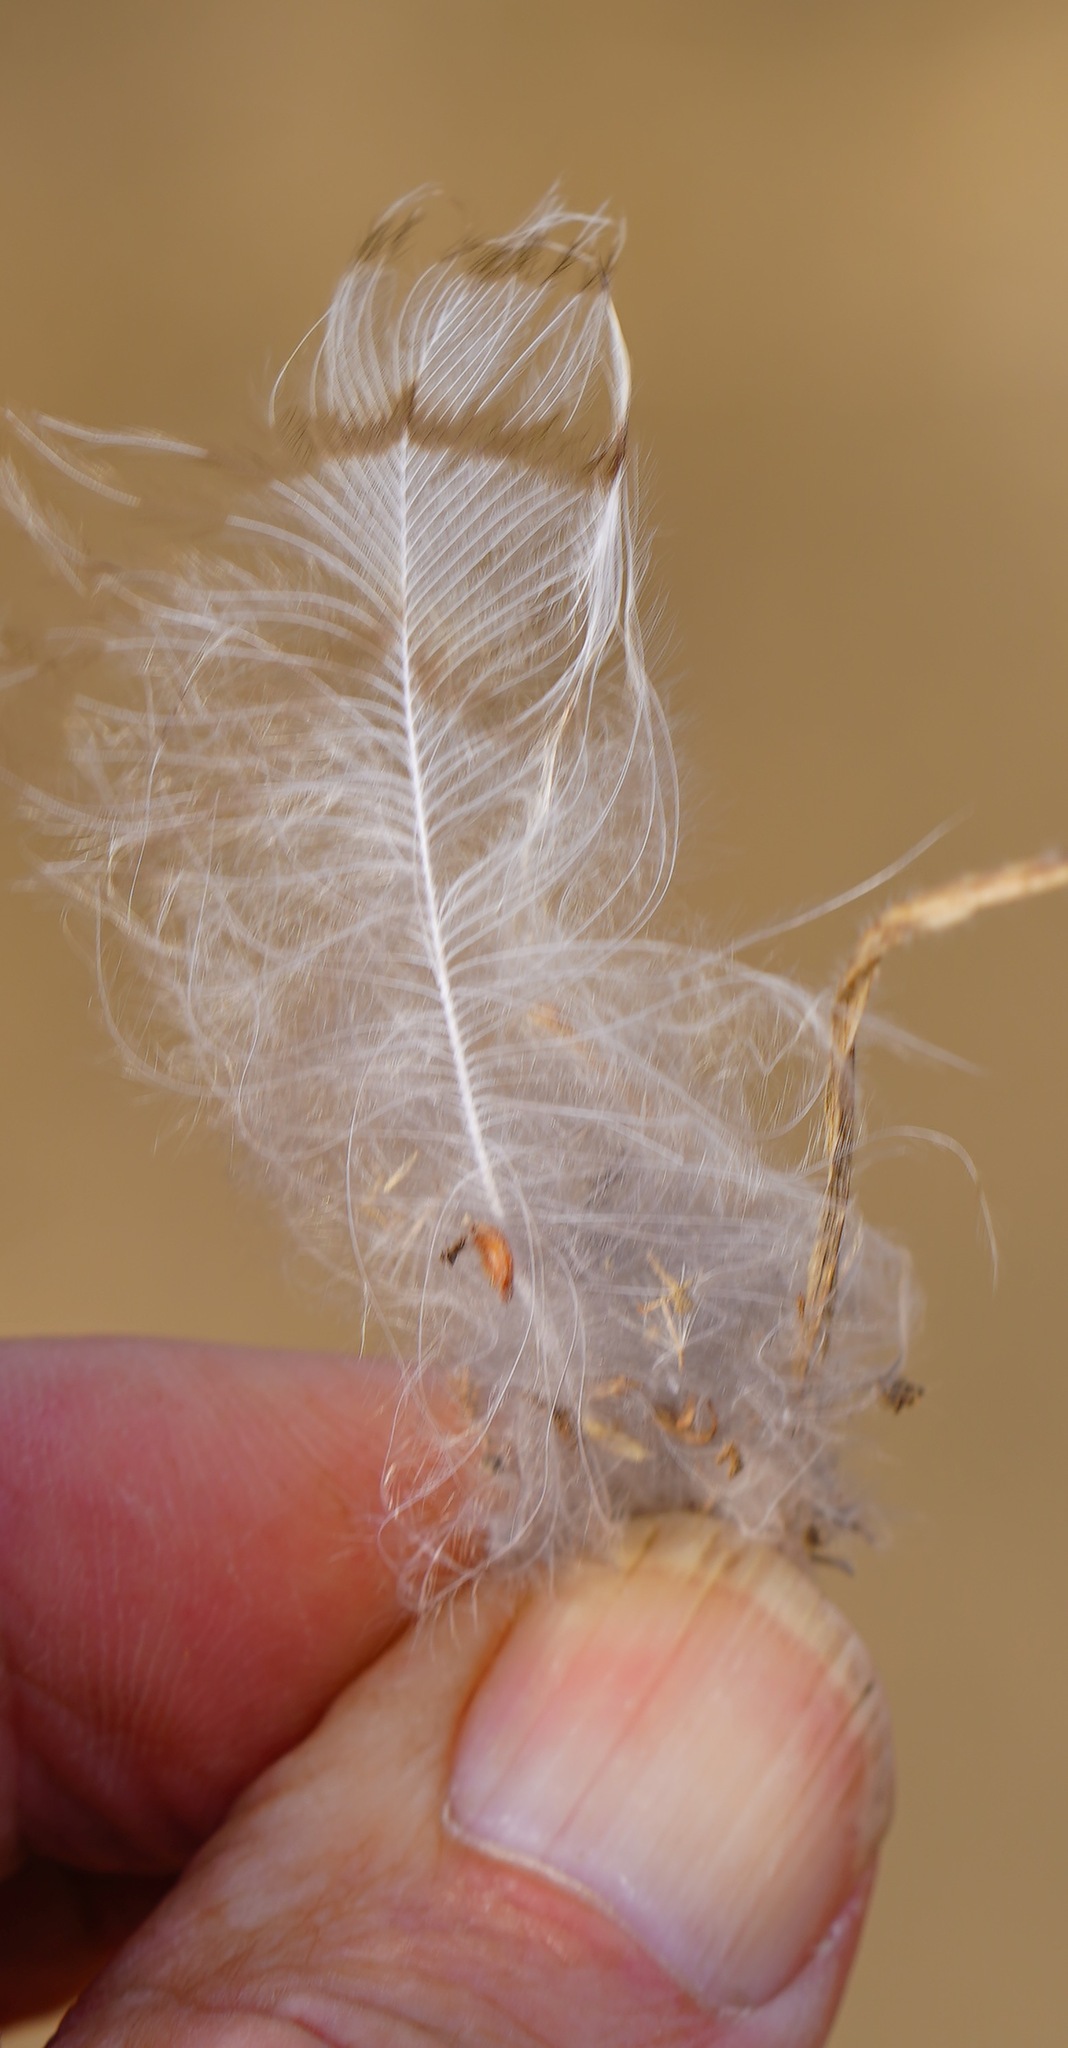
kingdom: Animalia
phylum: Chordata
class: Aves
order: Strigiformes
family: Strigidae
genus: Bubo
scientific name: Bubo virginianus
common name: Great horned owl
